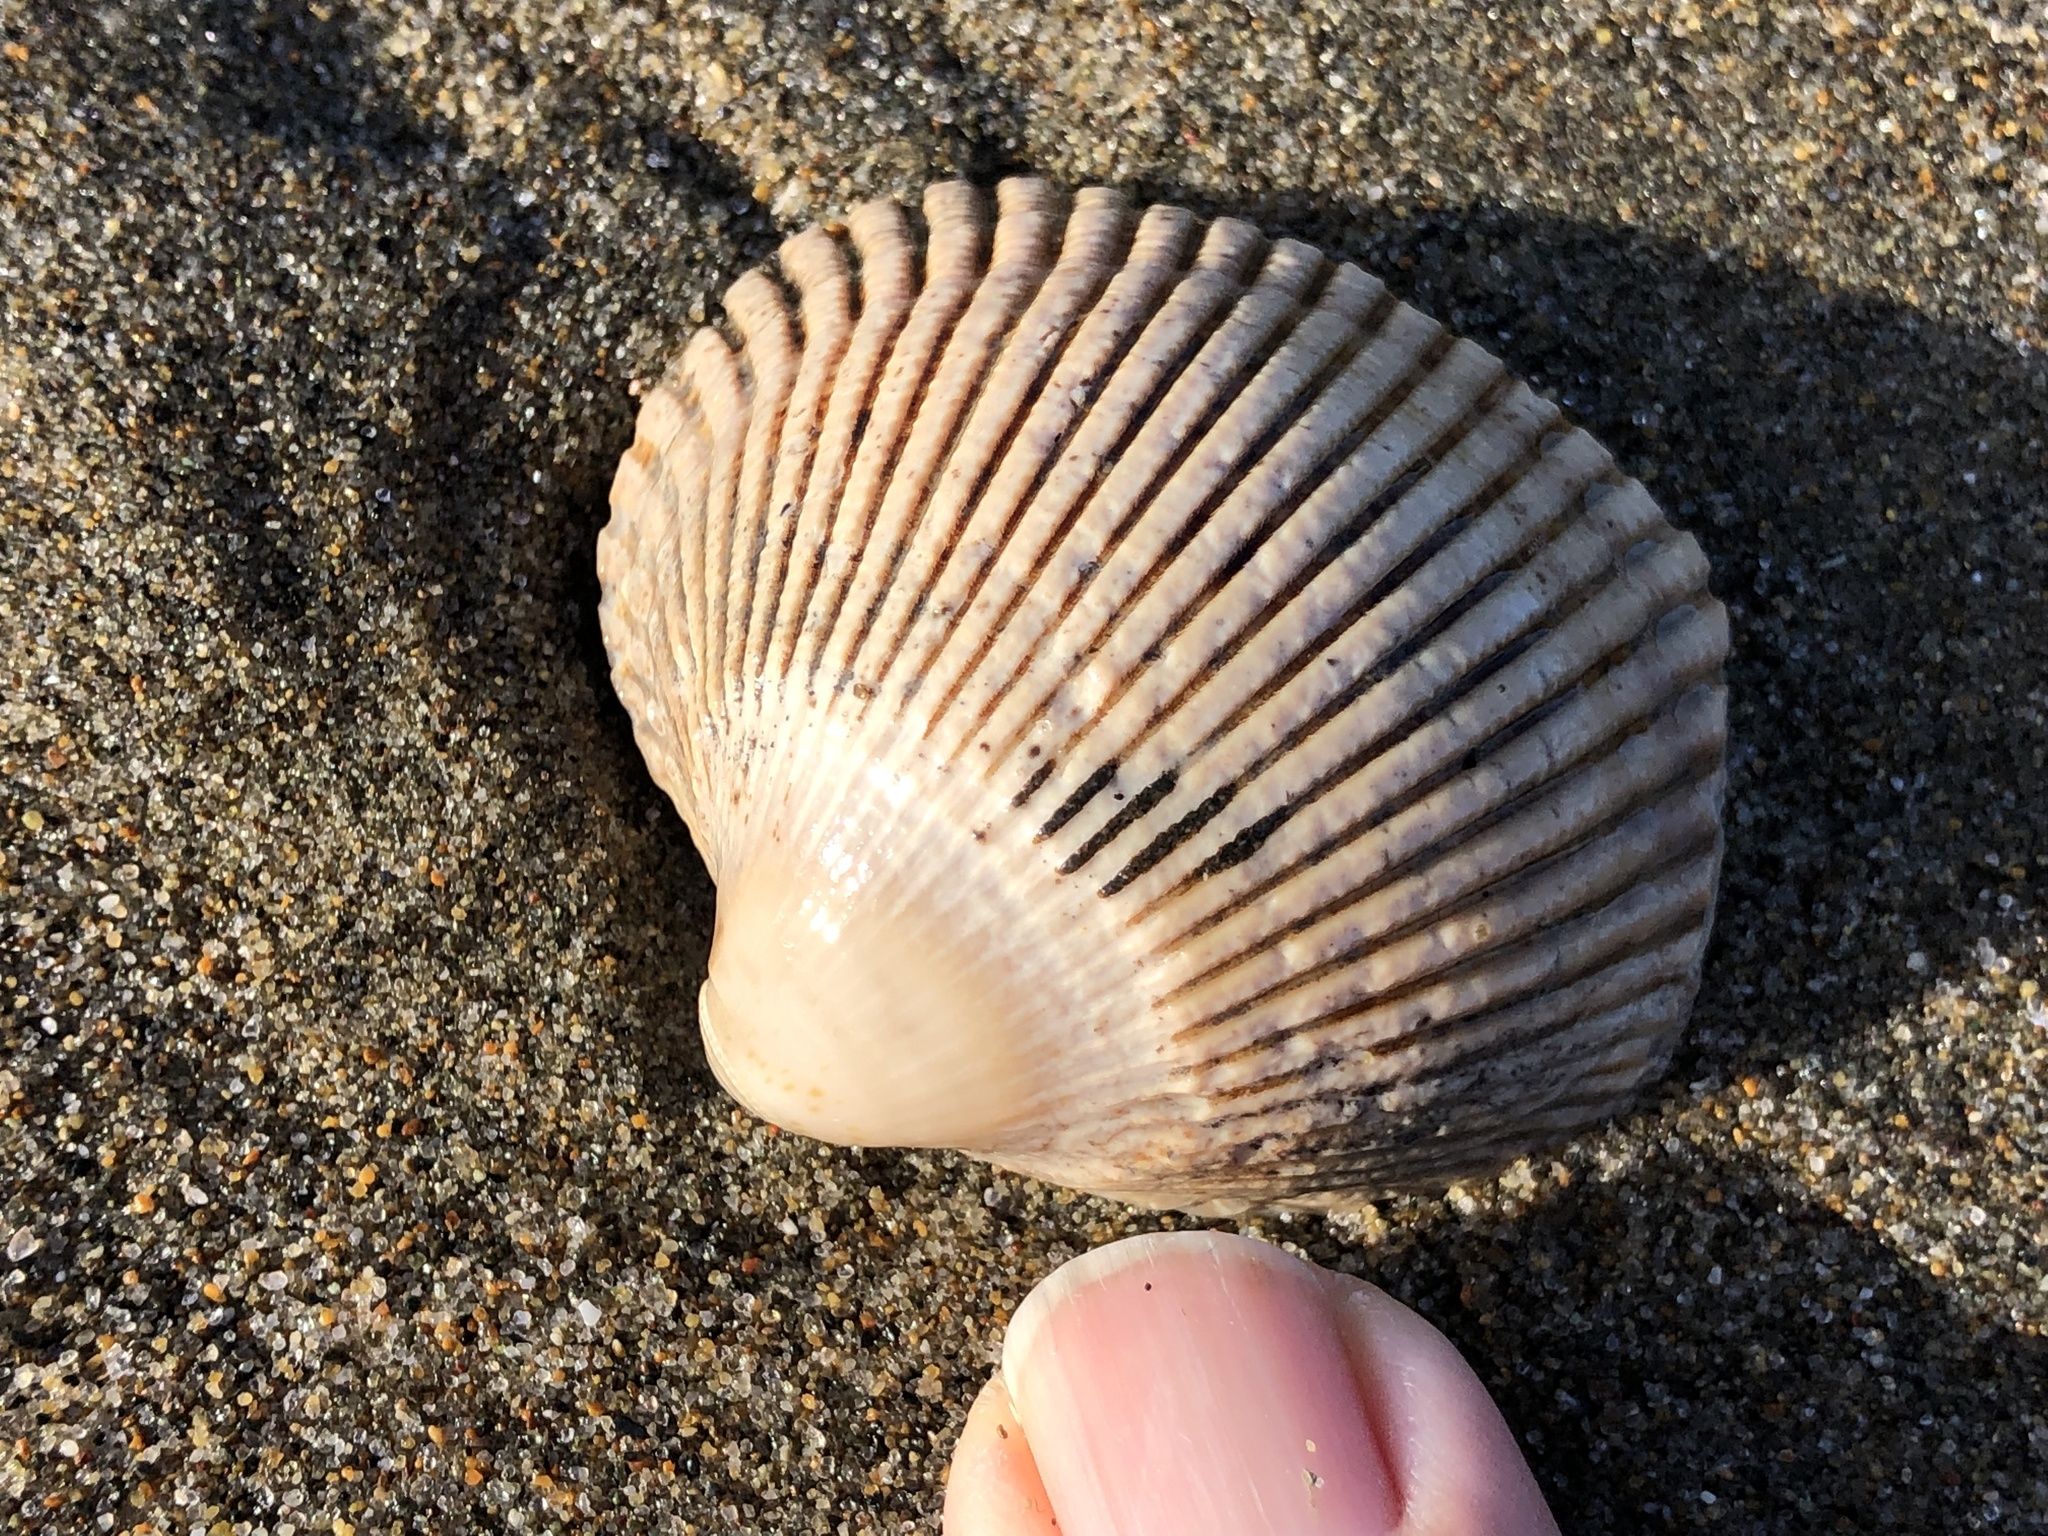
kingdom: Animalia
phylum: Mollusca
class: Bivalvia
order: Cardiida
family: Cardiidae
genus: Clinocardium
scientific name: Clinocardium nuttallii
